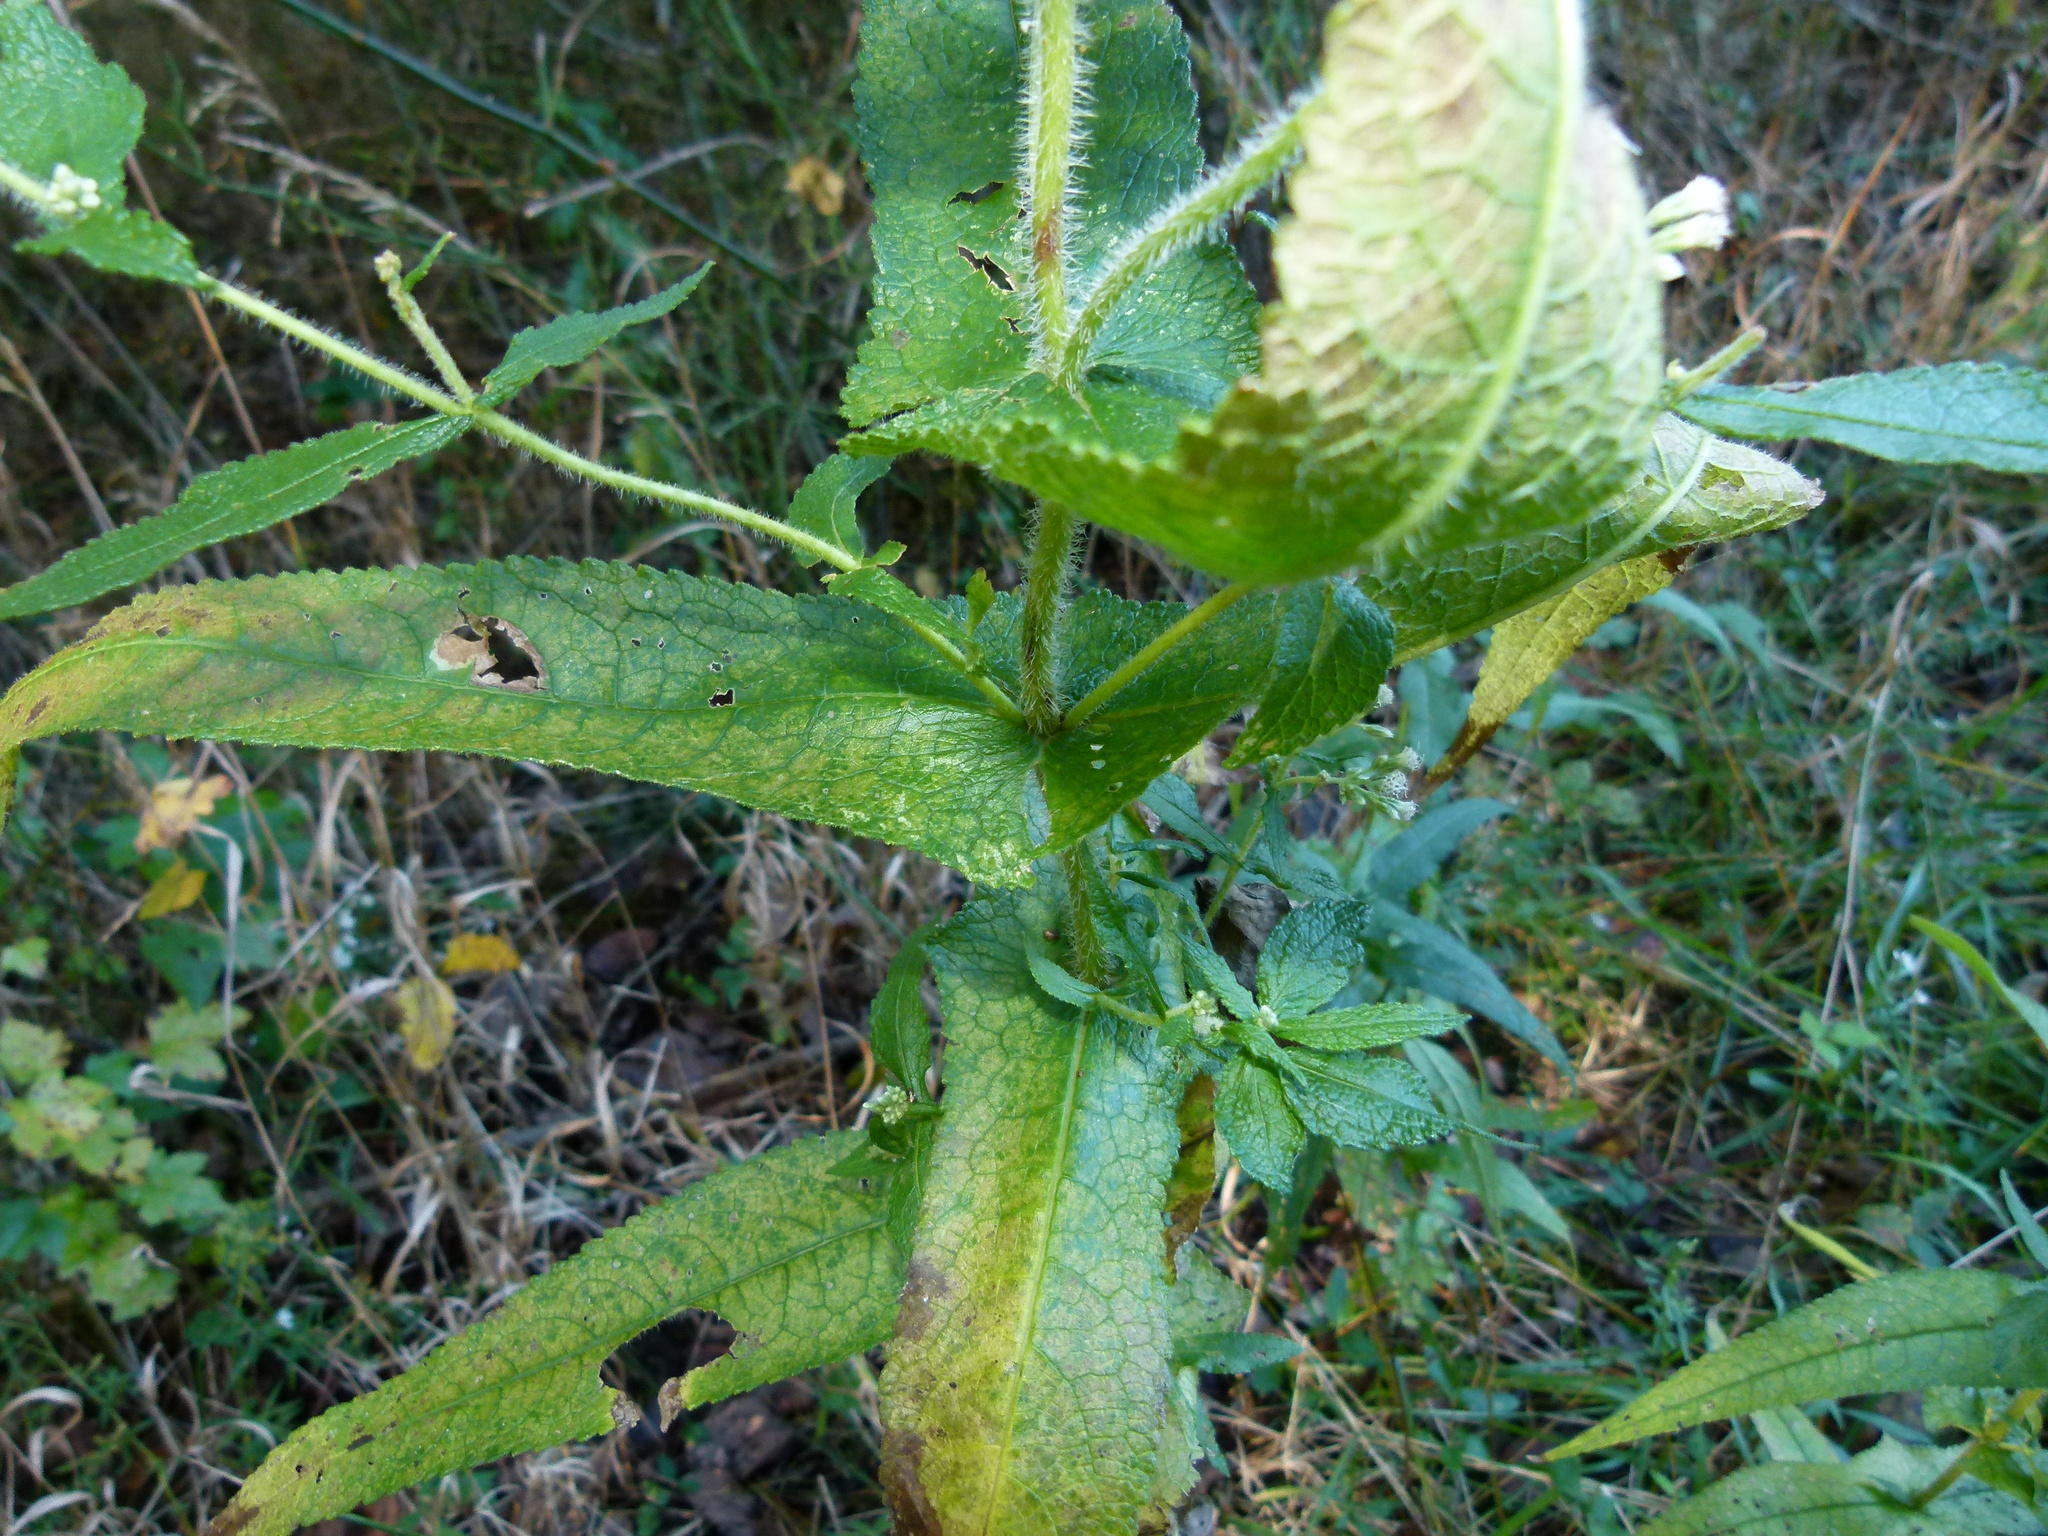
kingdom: Plantae
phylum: Tracheophyta
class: Magnoliopsida
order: Asterales
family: Asteraceae
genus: Eupatorium
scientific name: Eupatorium perfoliatum
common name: Boneset
